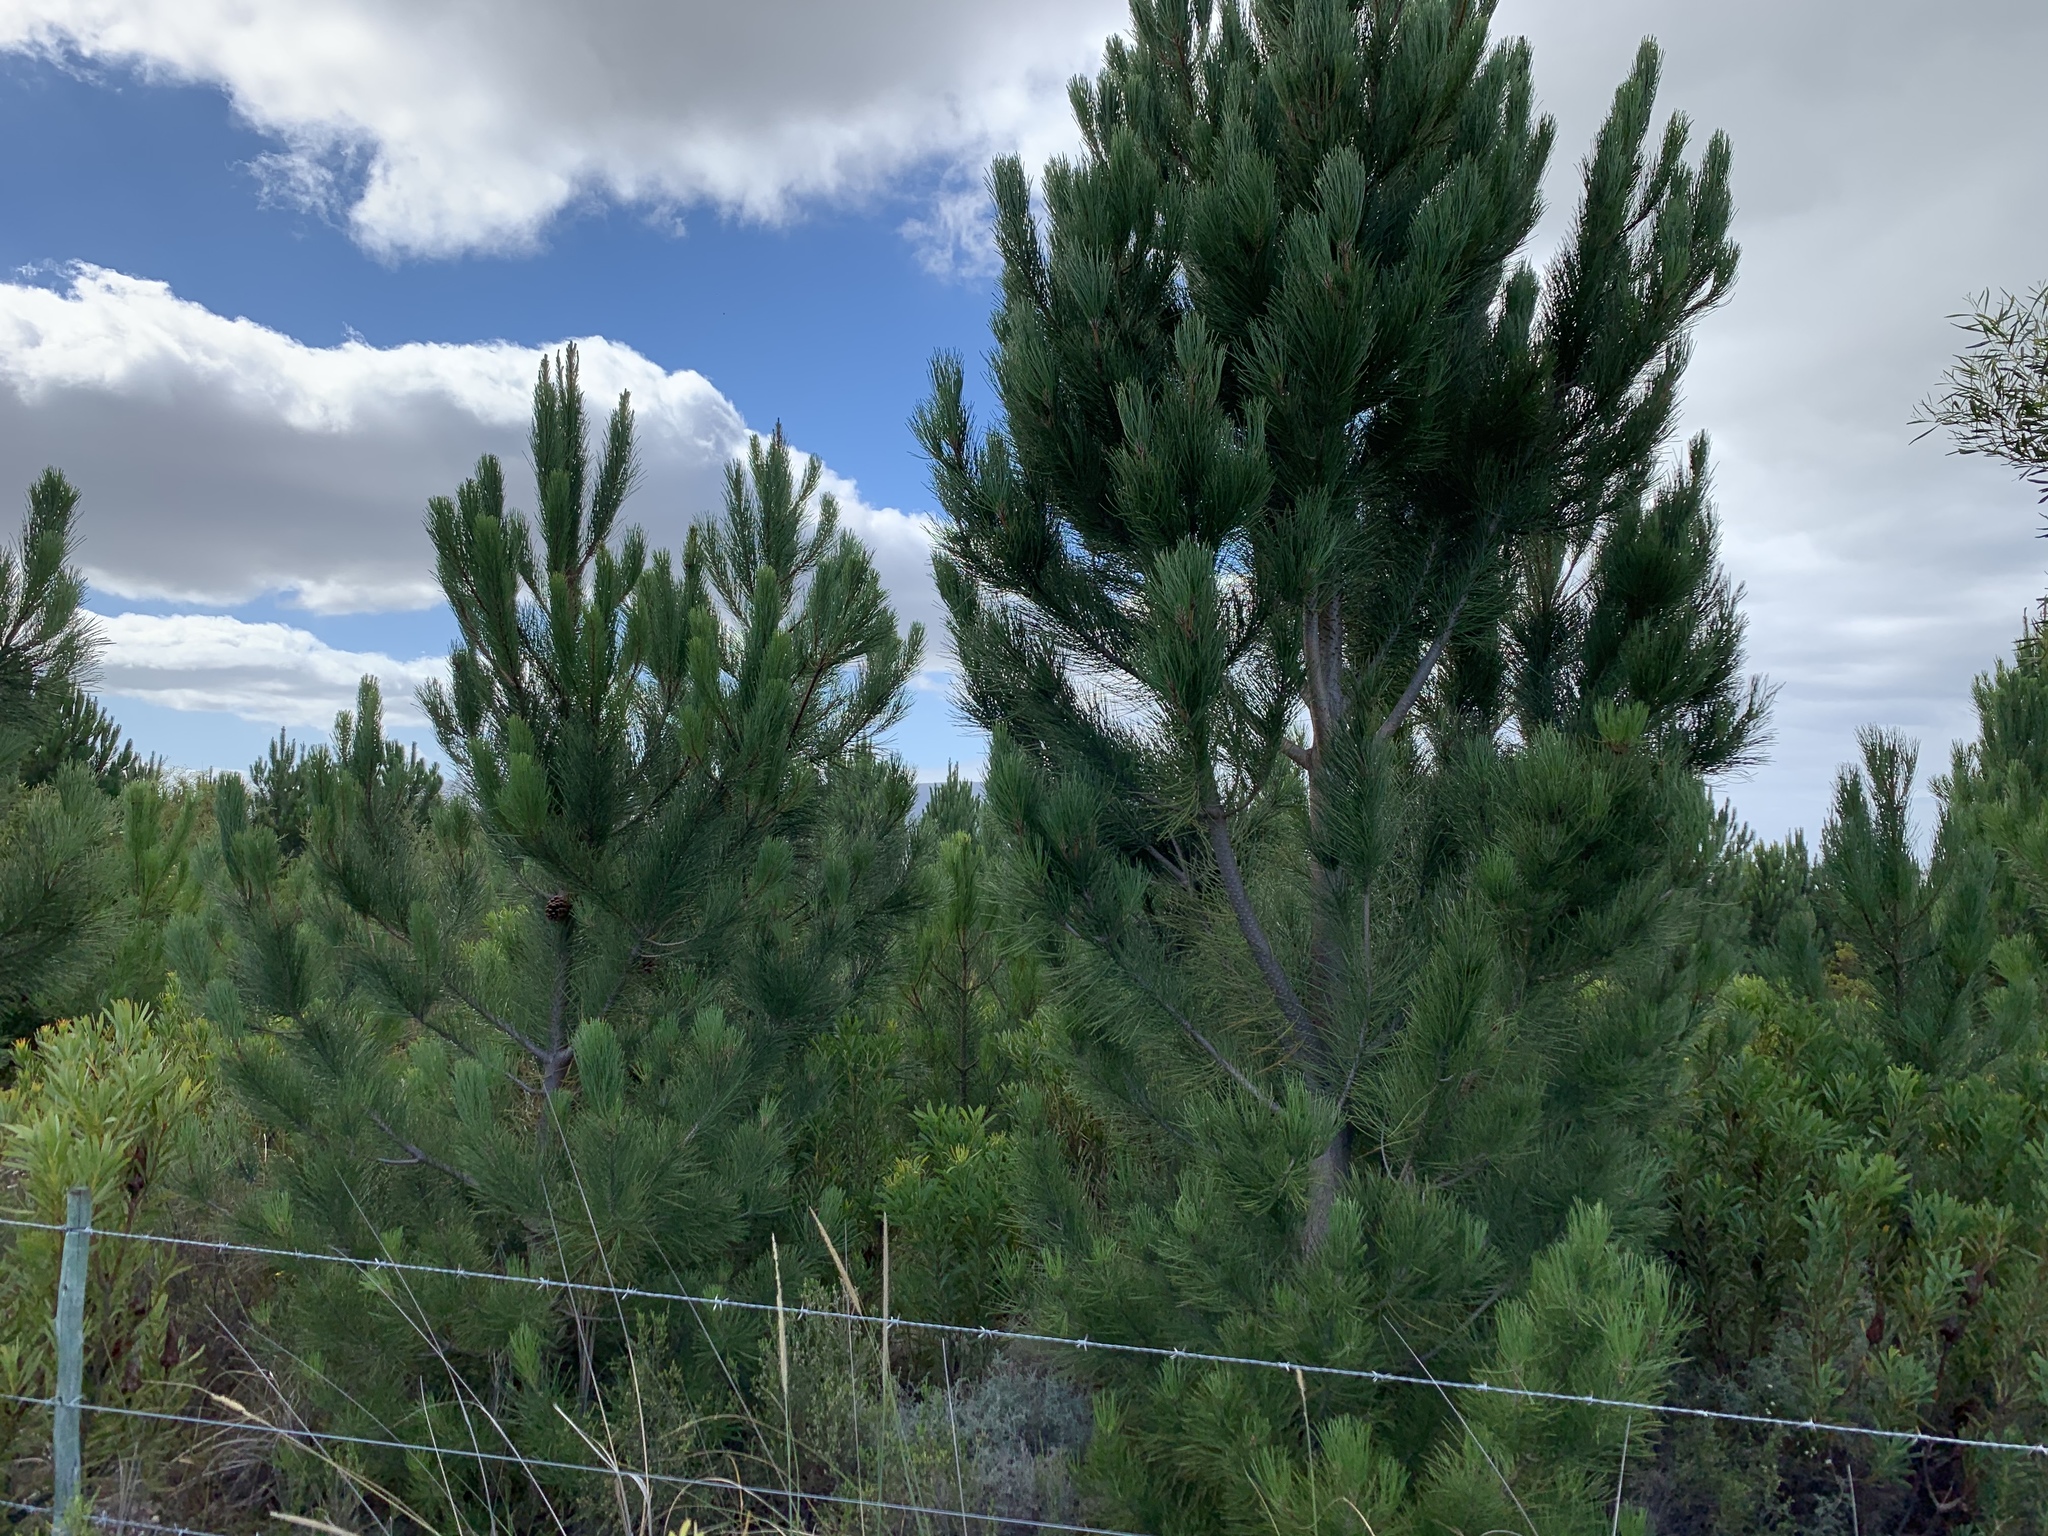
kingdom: Plantae
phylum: Tracheophyta
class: Pinopsida
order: Pinales
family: Pinaceae
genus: Pinus
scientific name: Pinus pinaster
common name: Maritime pine
